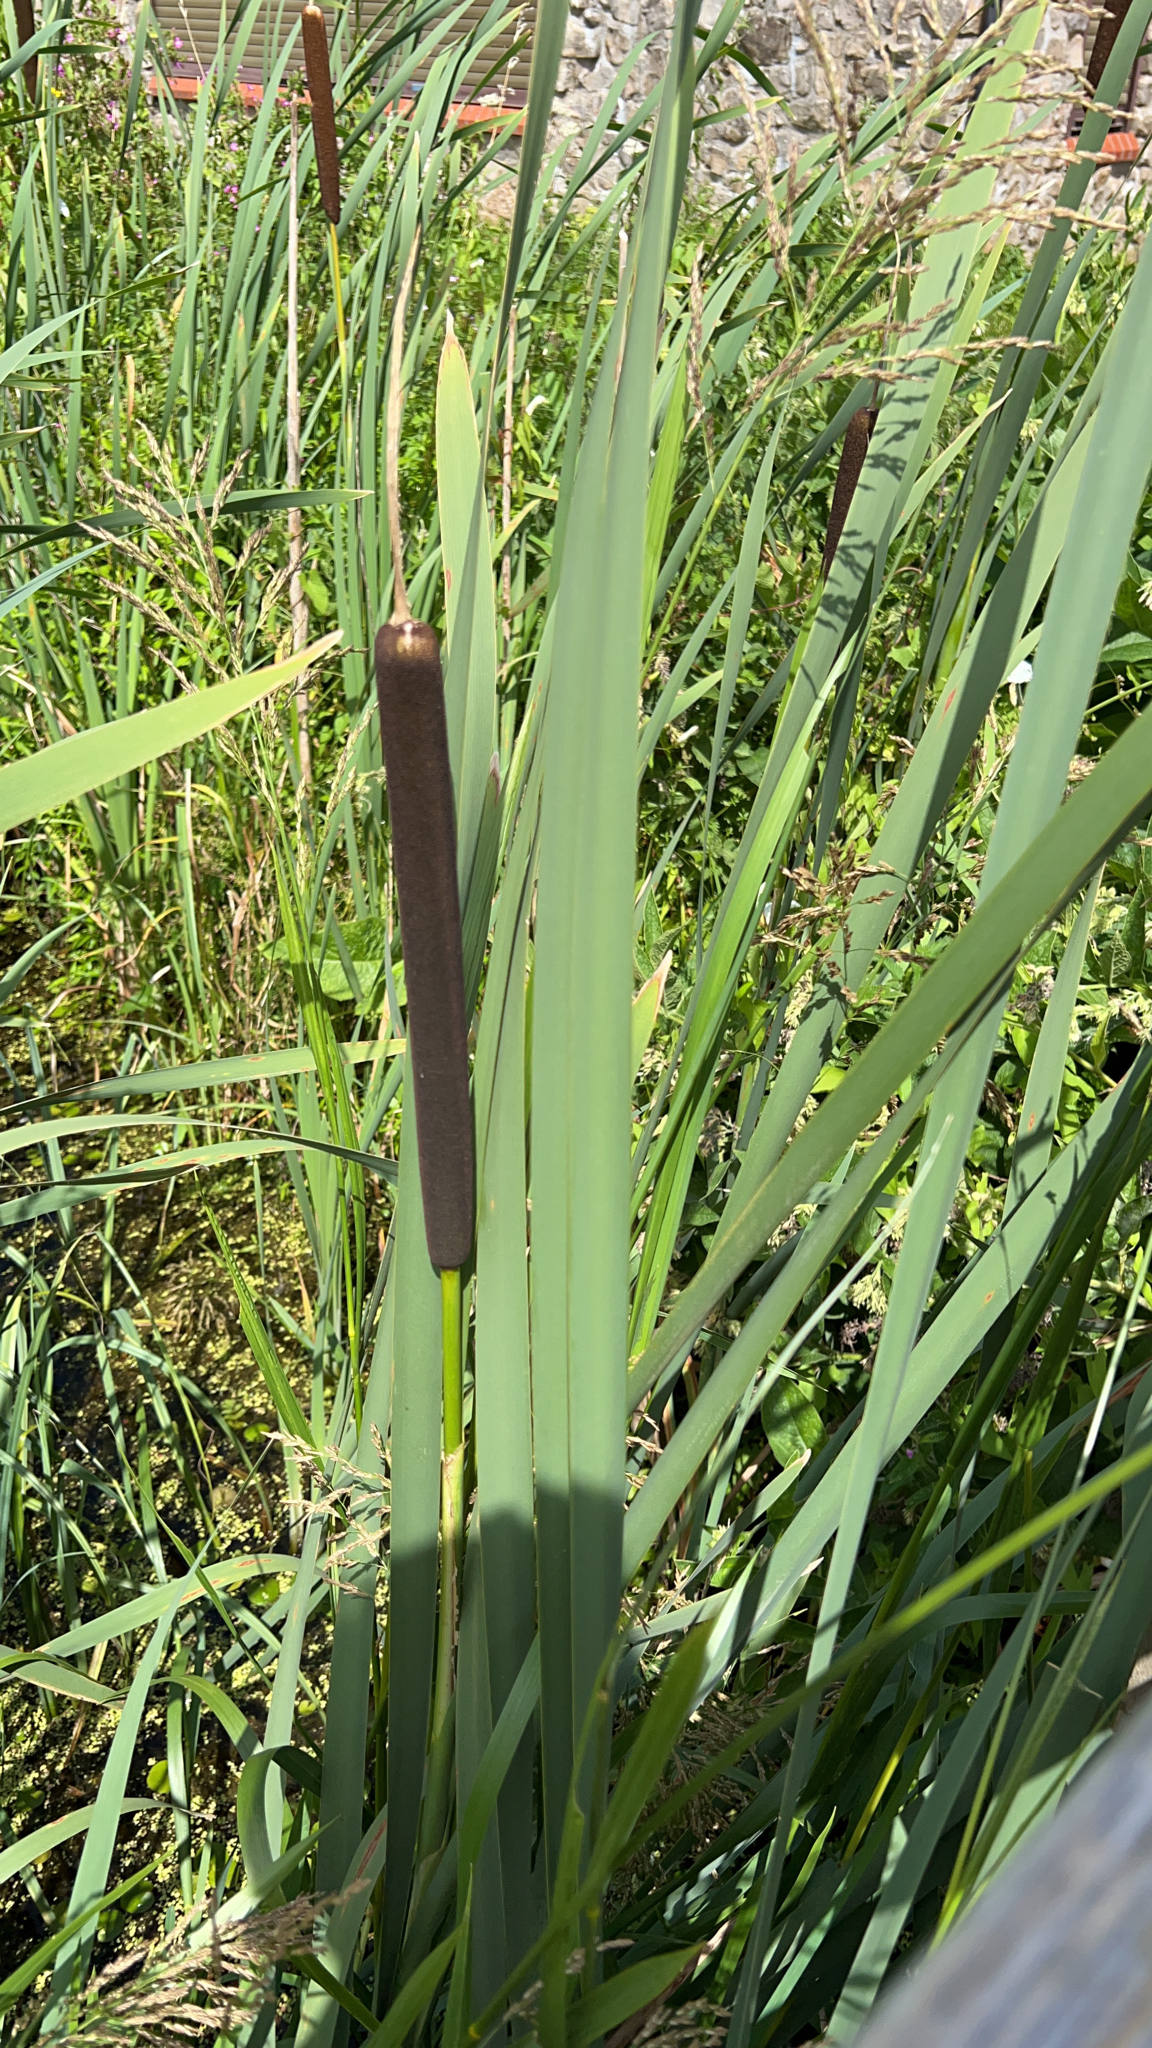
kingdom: Plantae
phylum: Tracheophyta
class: Liliopsida
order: Poales
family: Typhaceae
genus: Typha
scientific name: Typha latifolia
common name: Broadleaf cattail
